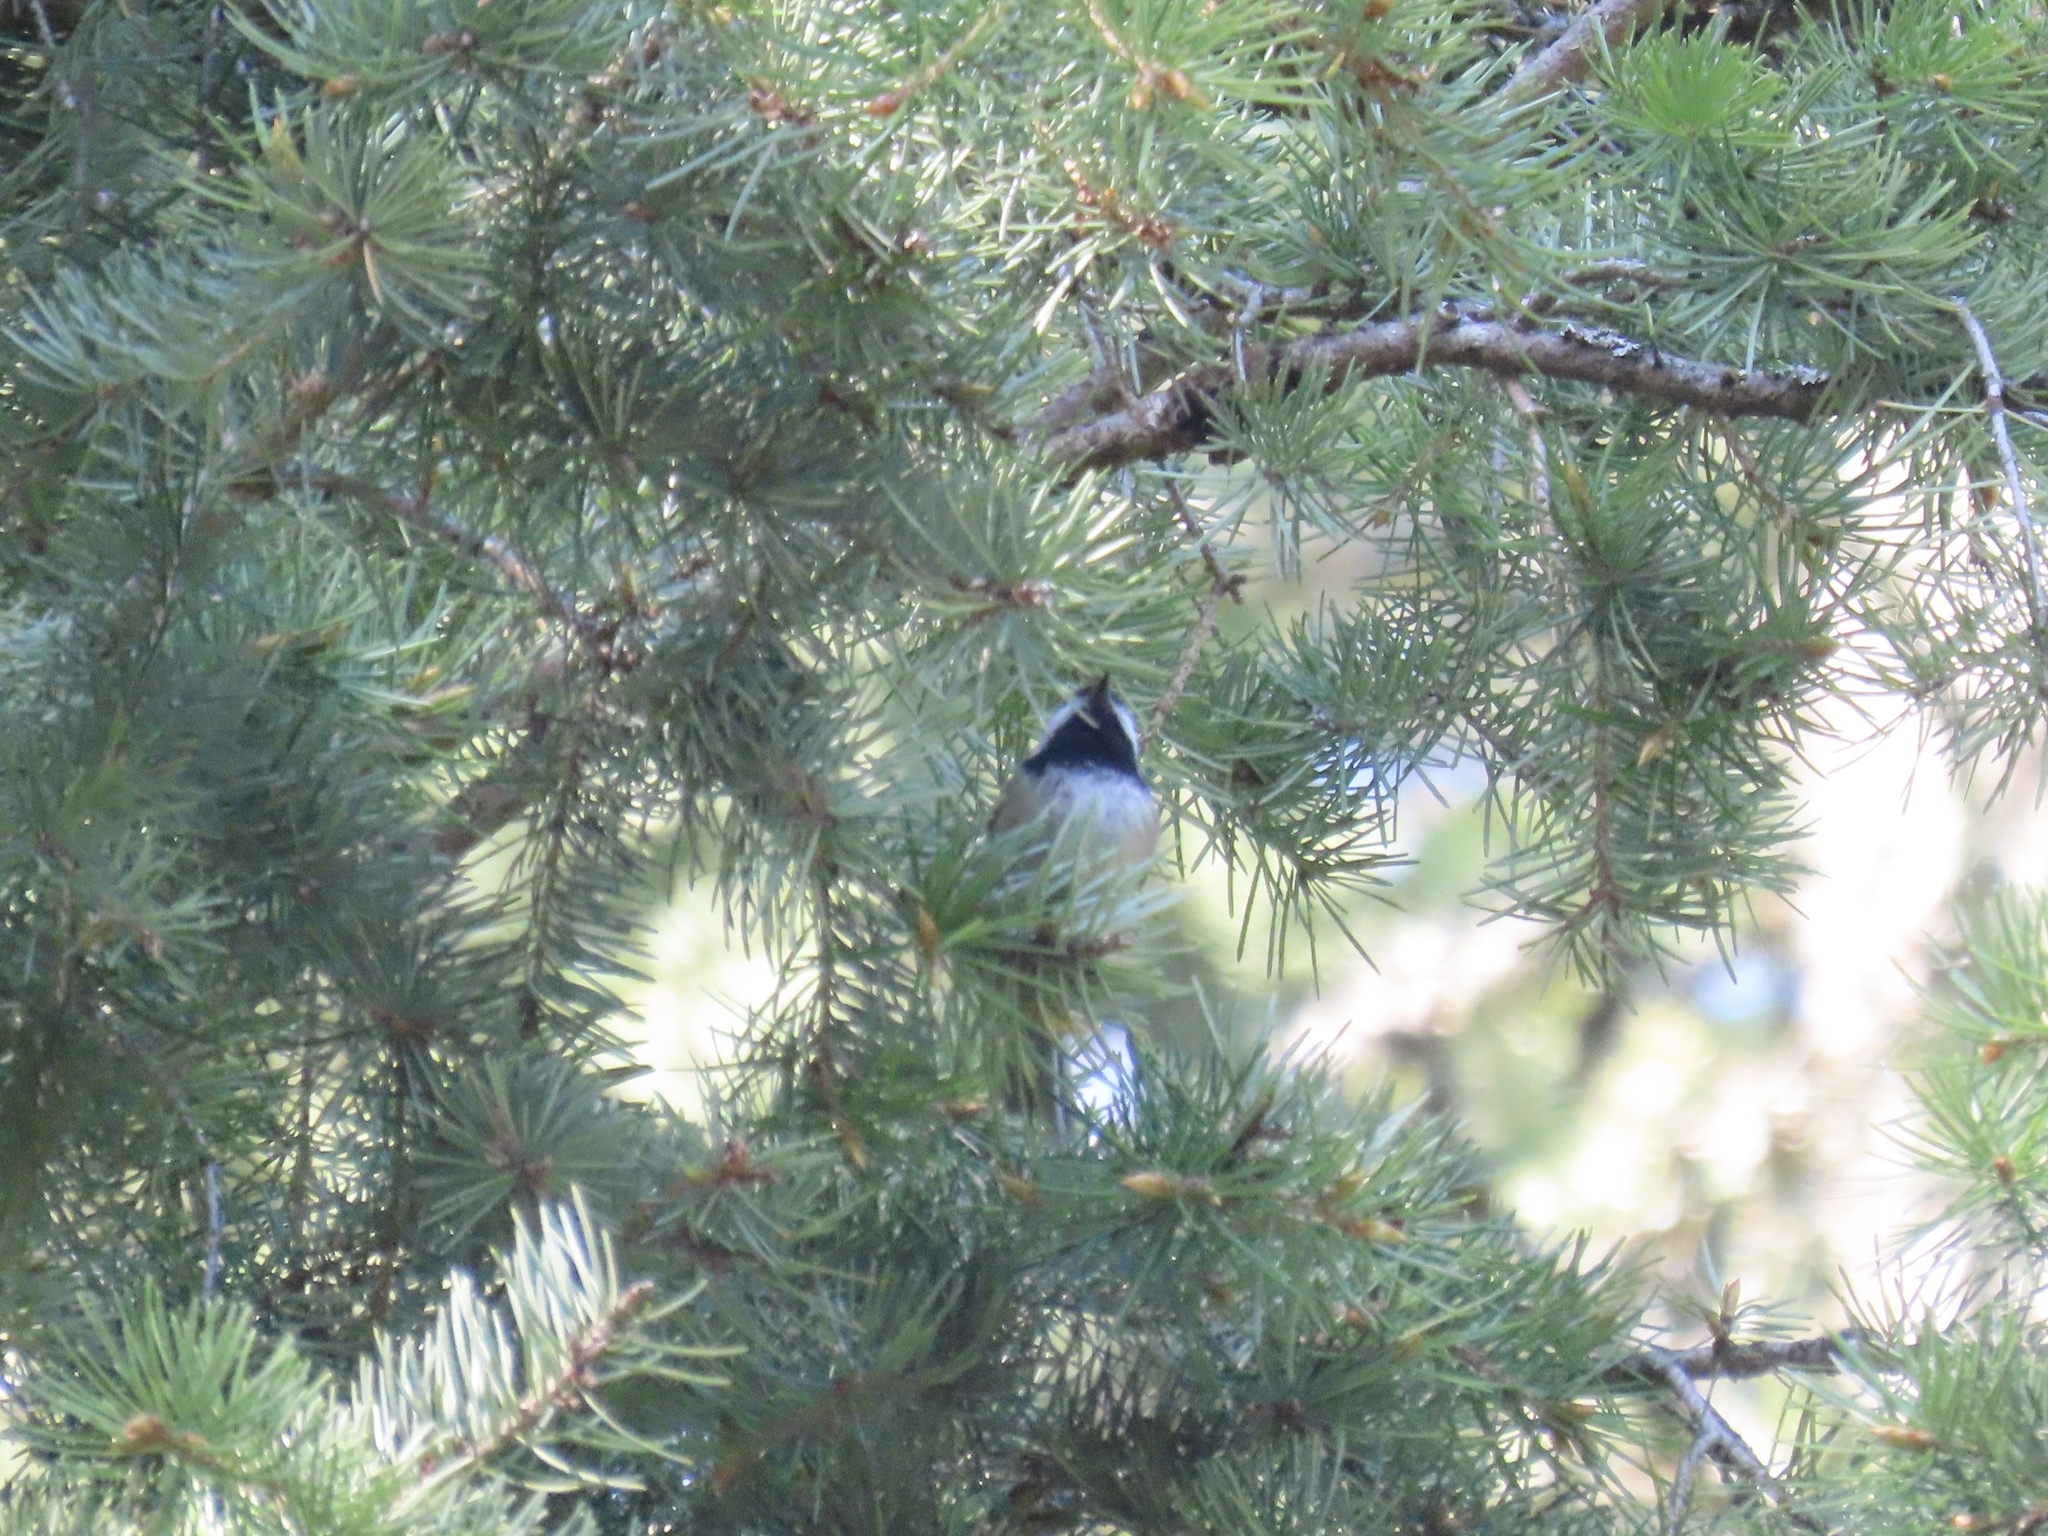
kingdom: Animalia
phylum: Chordata
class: Aves
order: Passeriformes
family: Paridae
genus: Poecile
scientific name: Poecile atricapillus
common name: Black-capped chickadee
